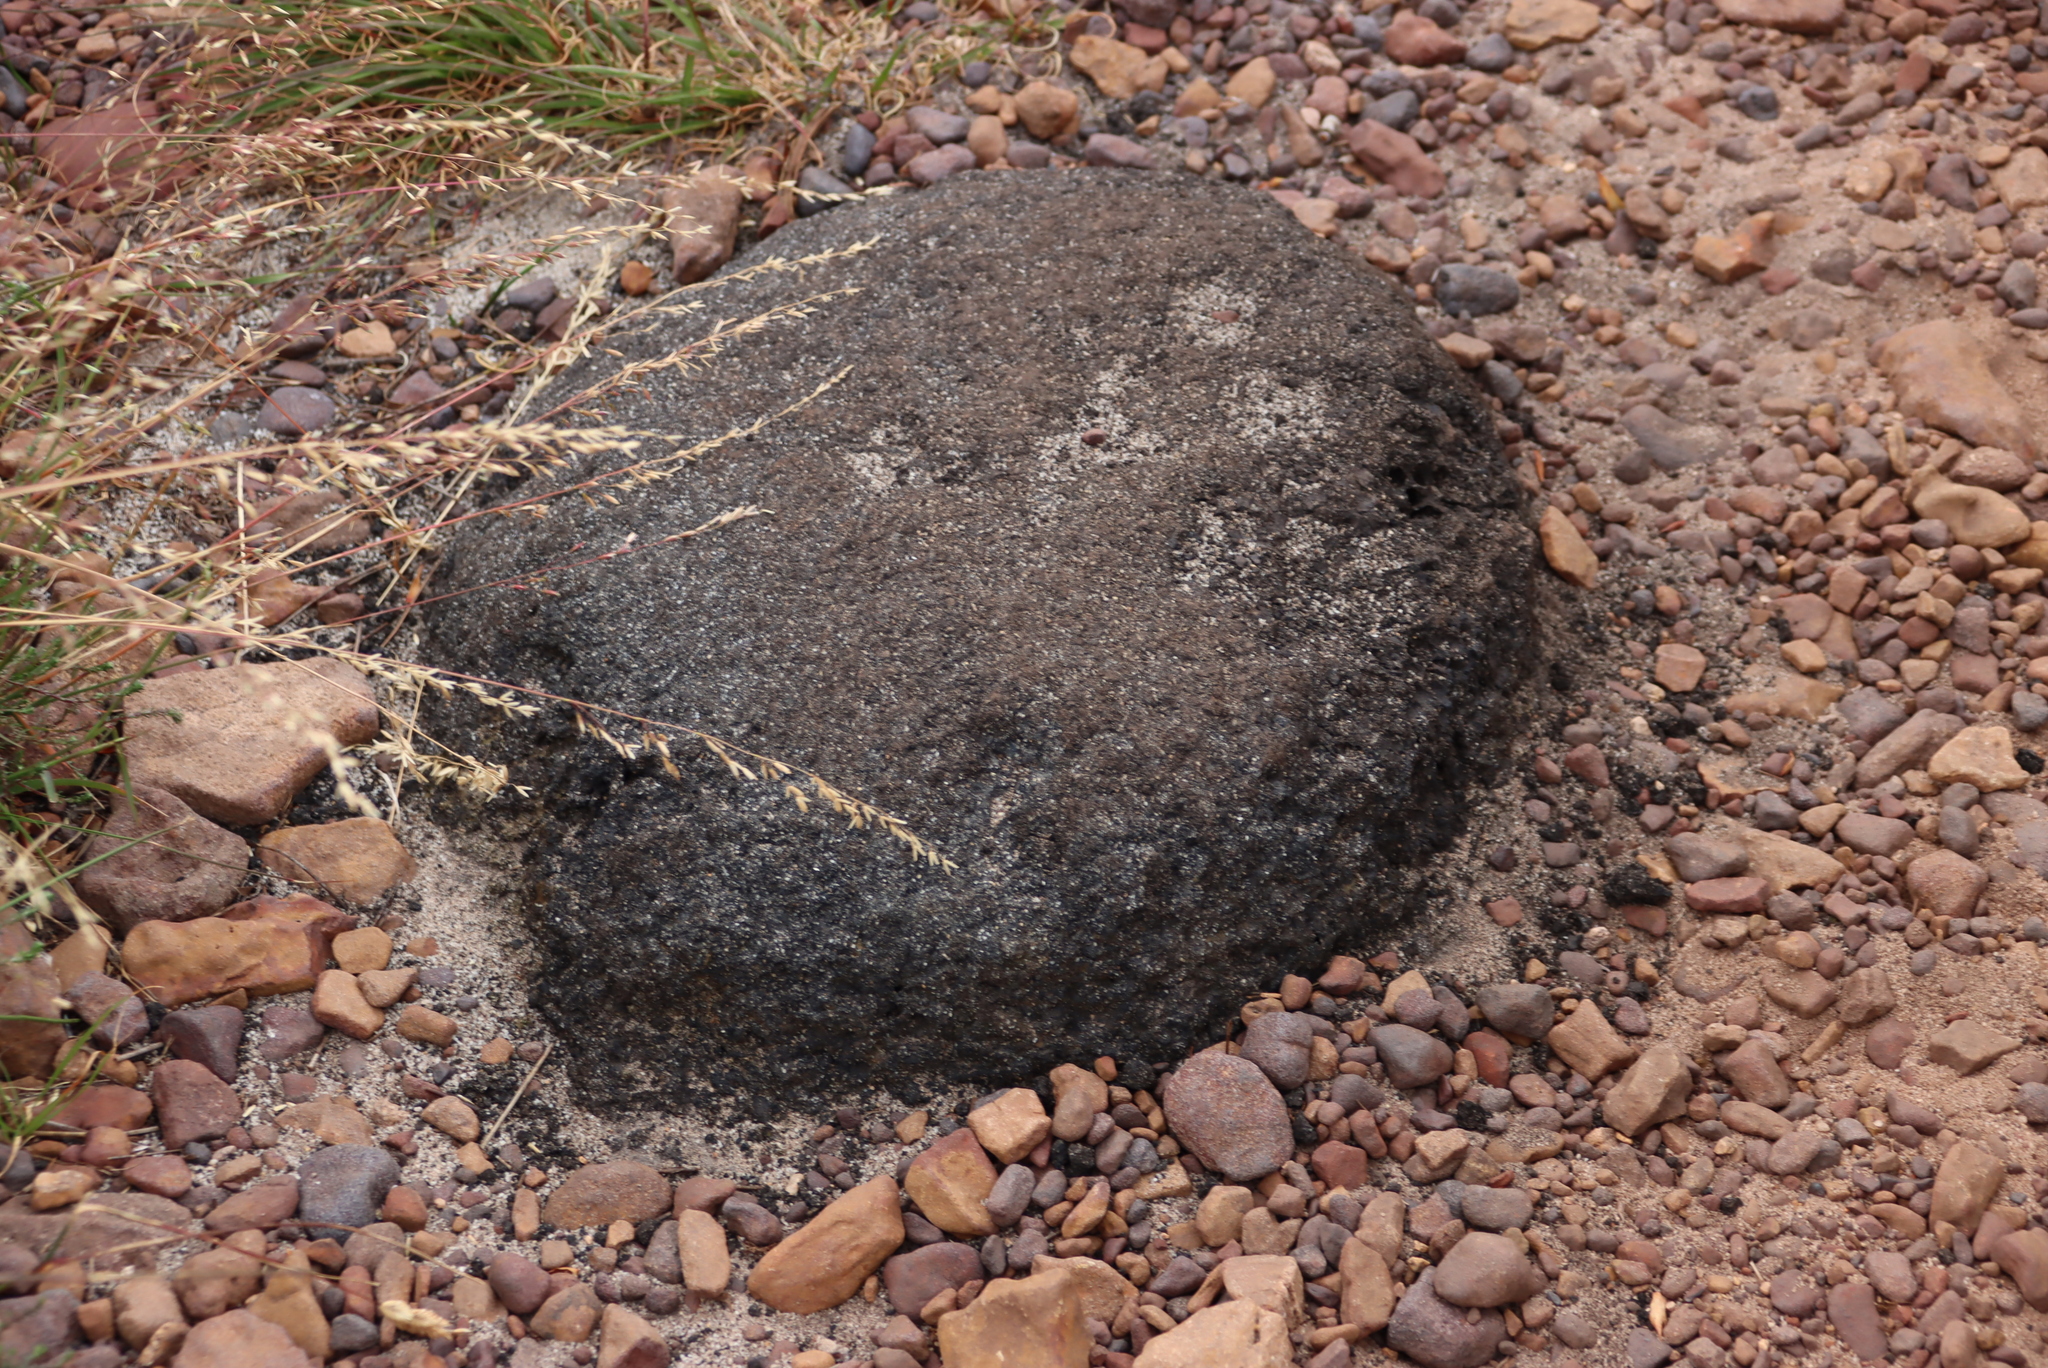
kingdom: Animalia
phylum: Arthropoda
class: Insecta
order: Blattodea
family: Termitidae
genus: Amitermes
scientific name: Amitermes hastatus
